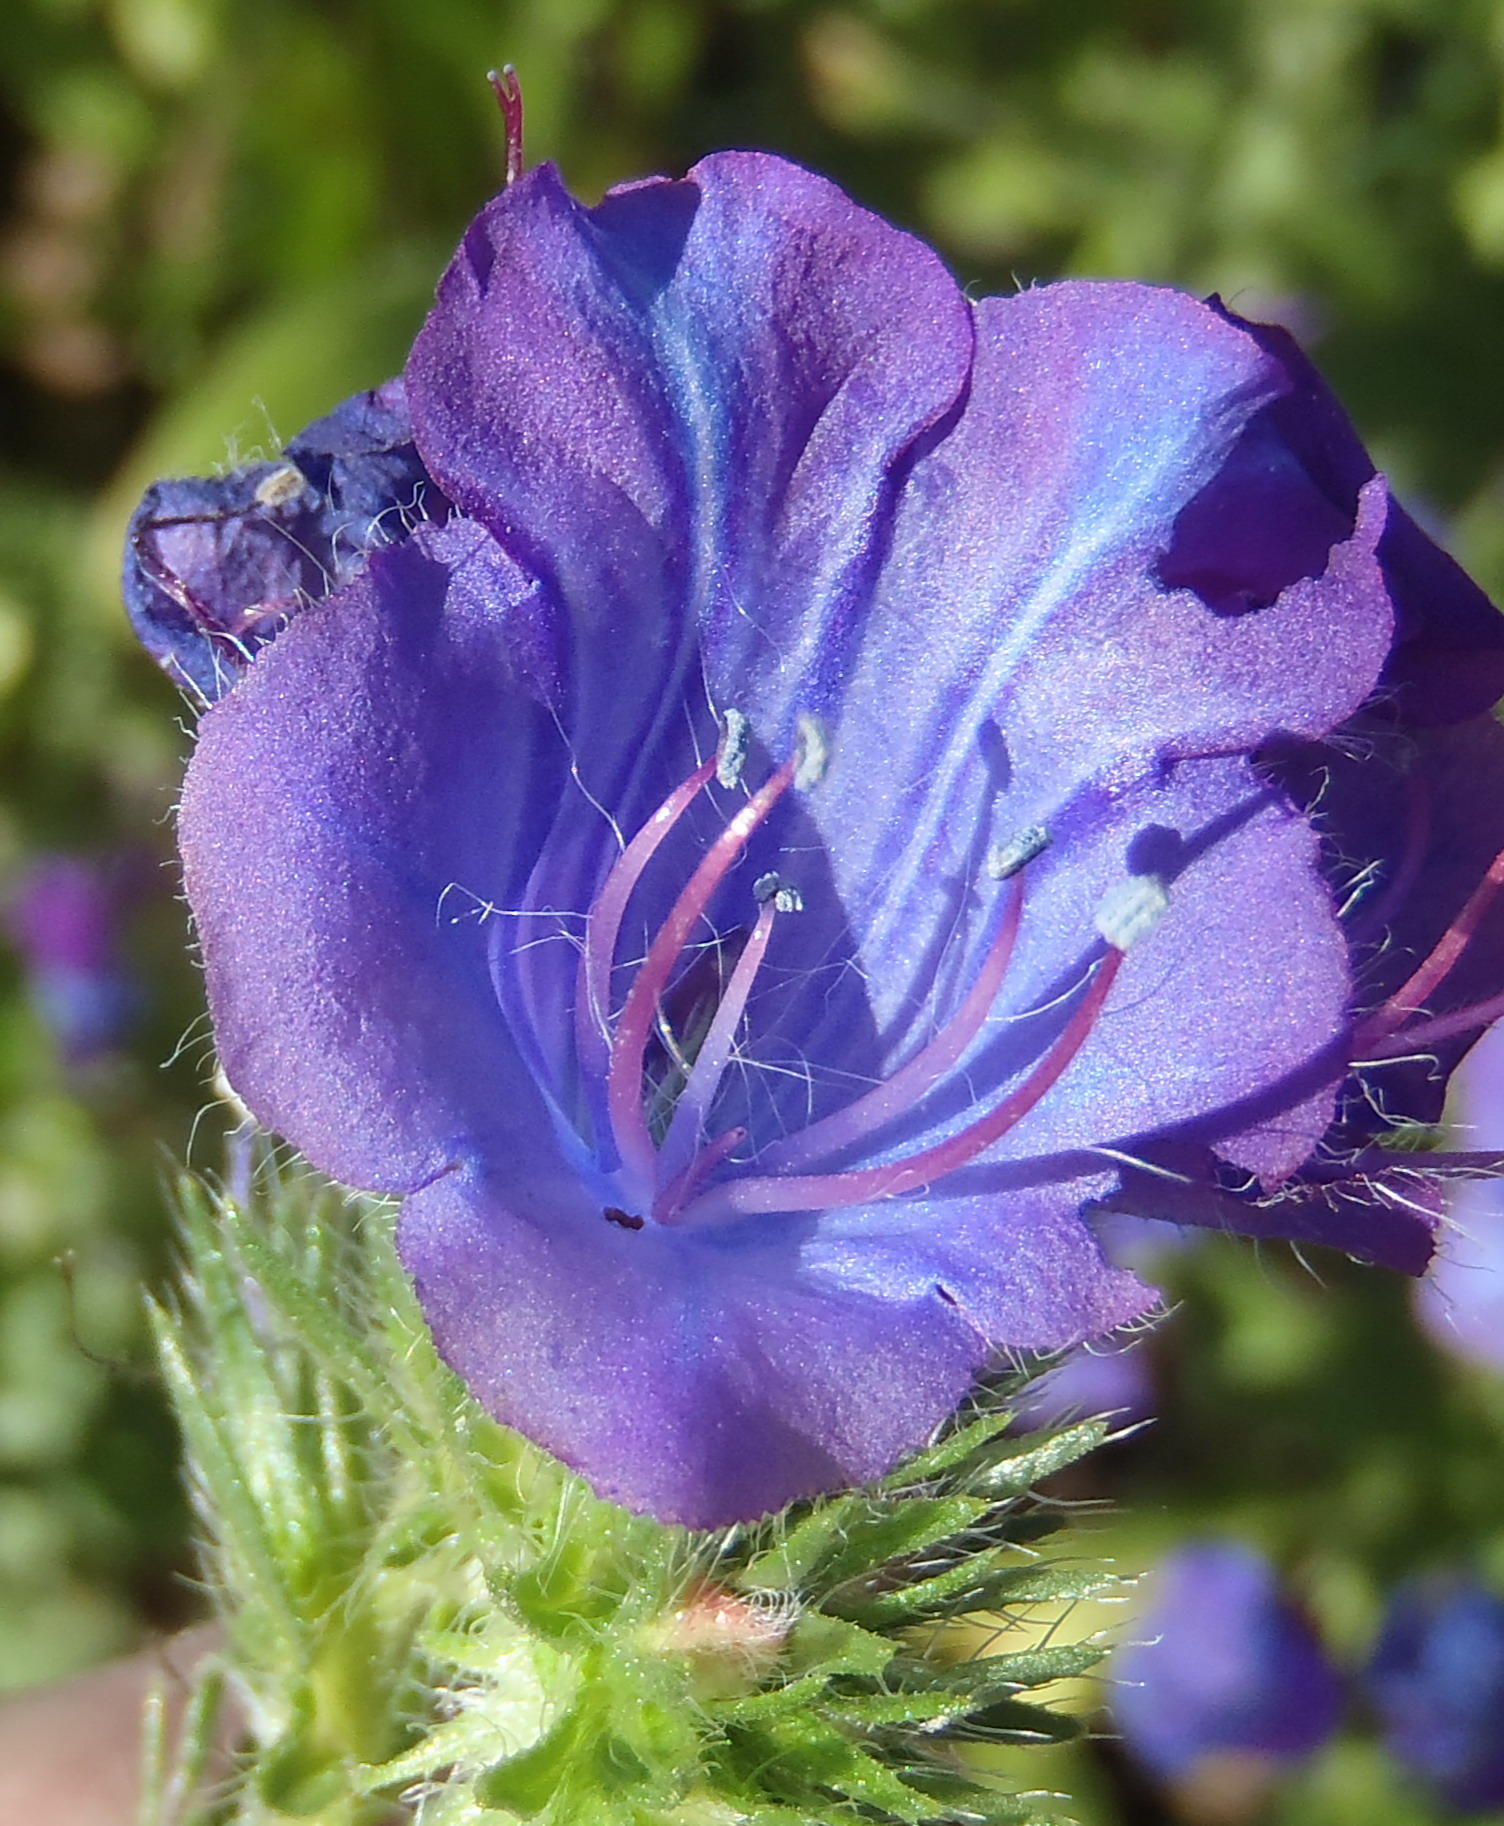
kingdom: Plantae
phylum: Tracheophyta
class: Magnoliopsida
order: Boraginales
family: Boraginaceae
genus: Echium
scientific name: Echium plantagineum
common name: Purple viper's-bugloss
